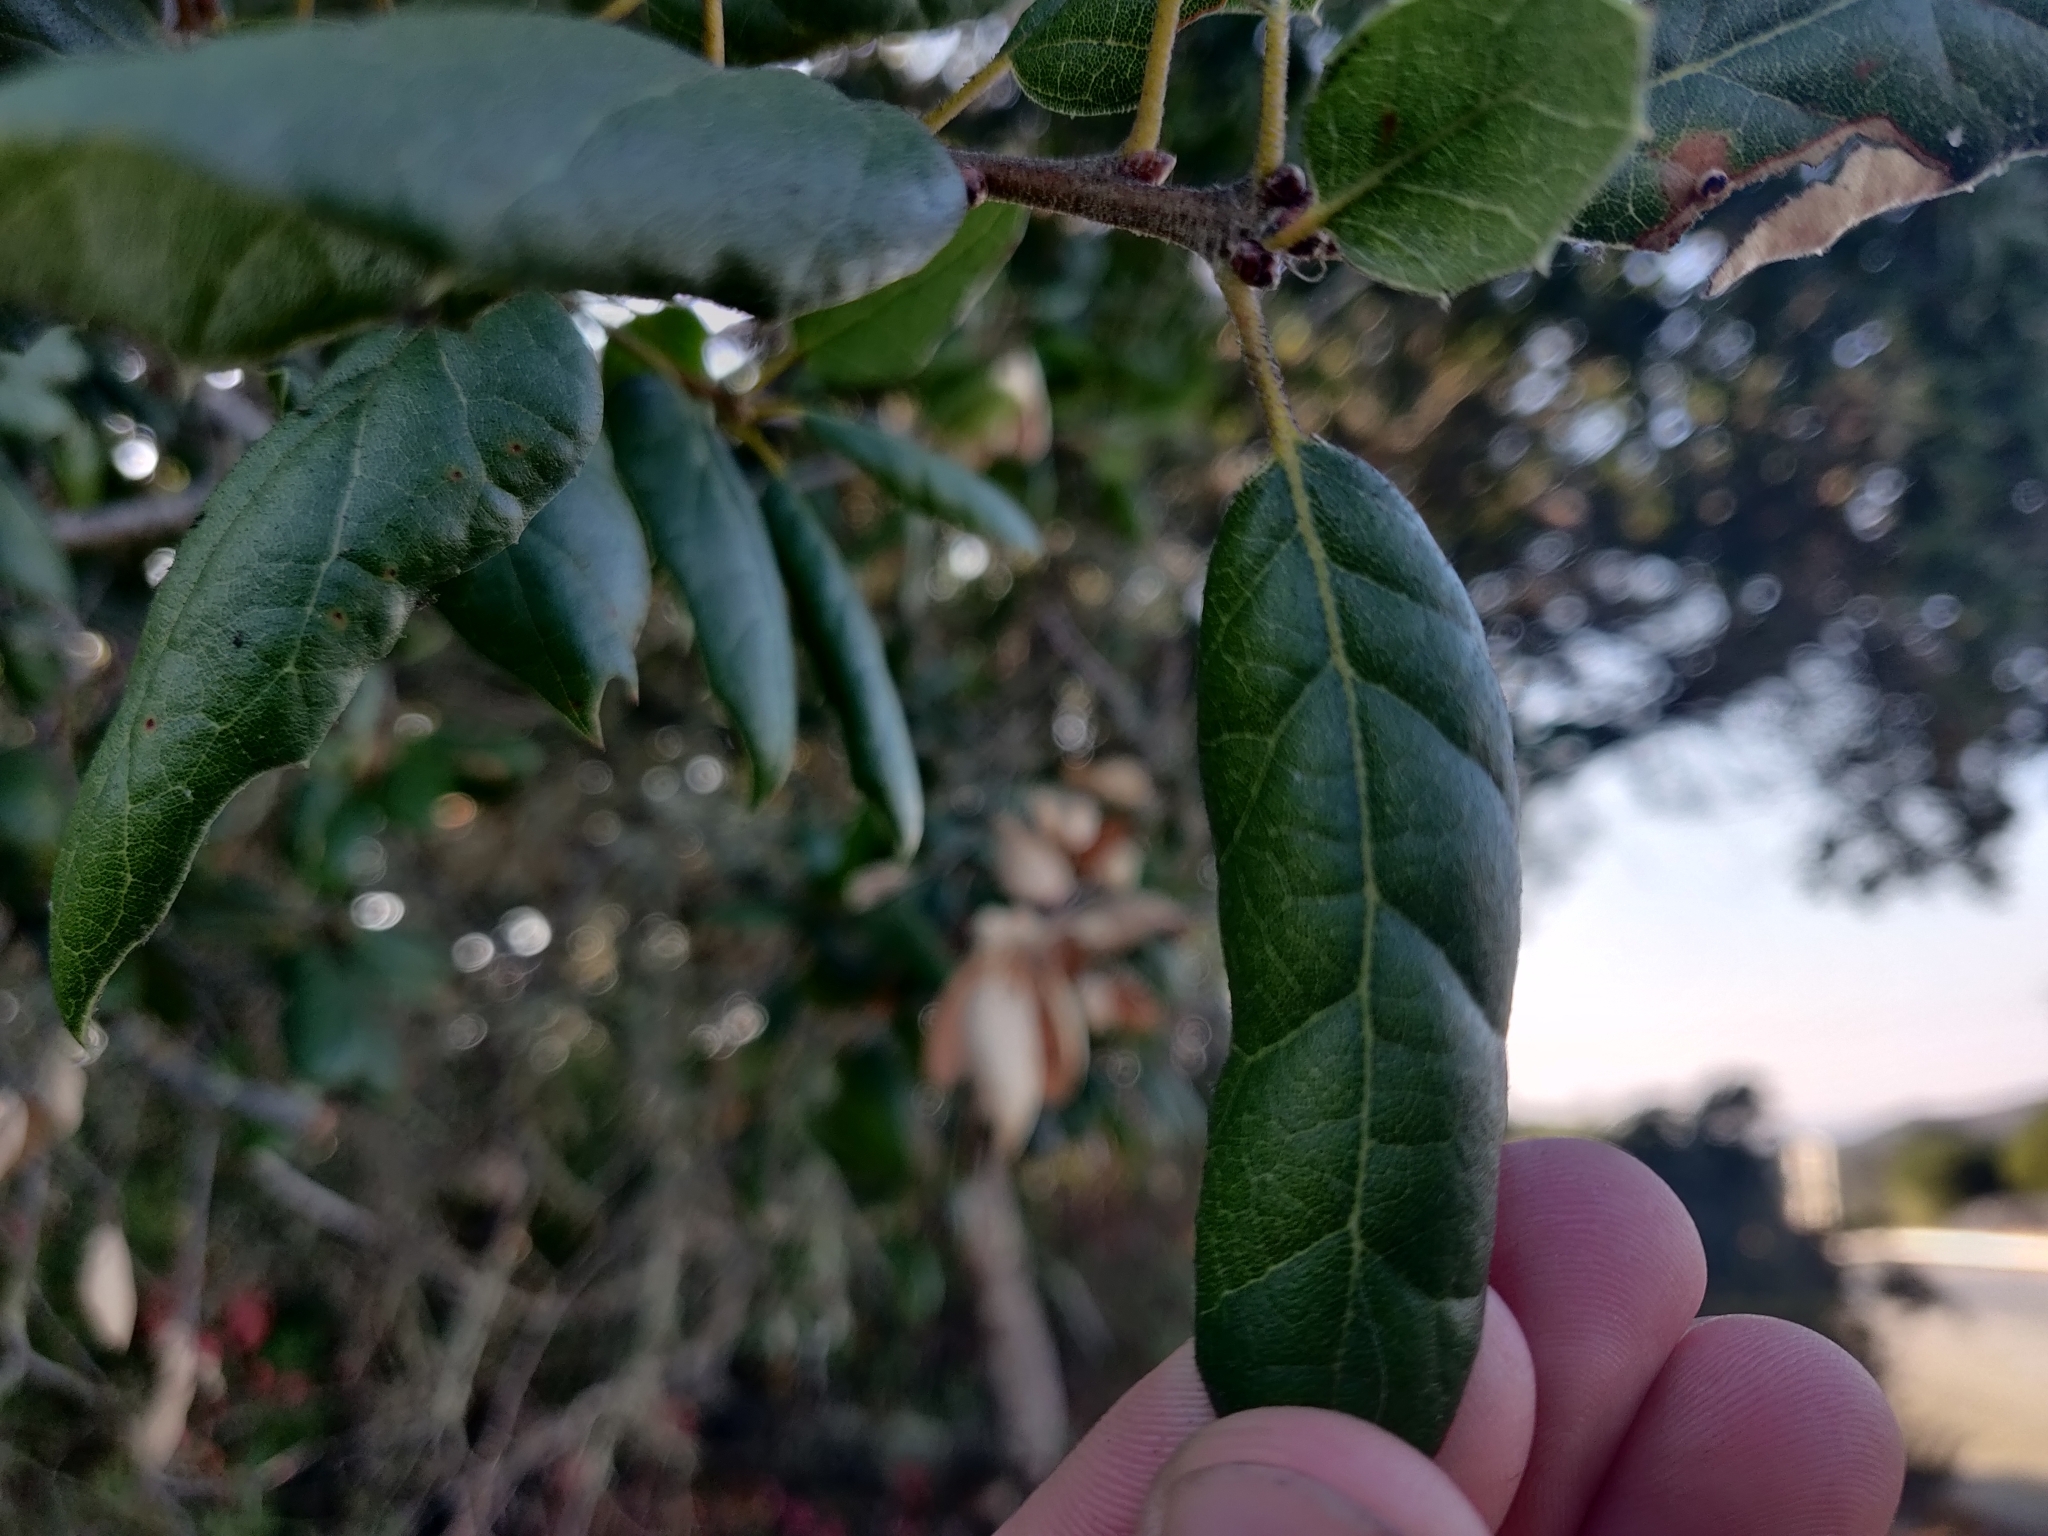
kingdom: Plantae
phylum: Tracheophyta
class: Magnoliopsida
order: Fagales
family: Fagaceae
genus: Quercus
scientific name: Quercus agrifolia
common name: California live oak
